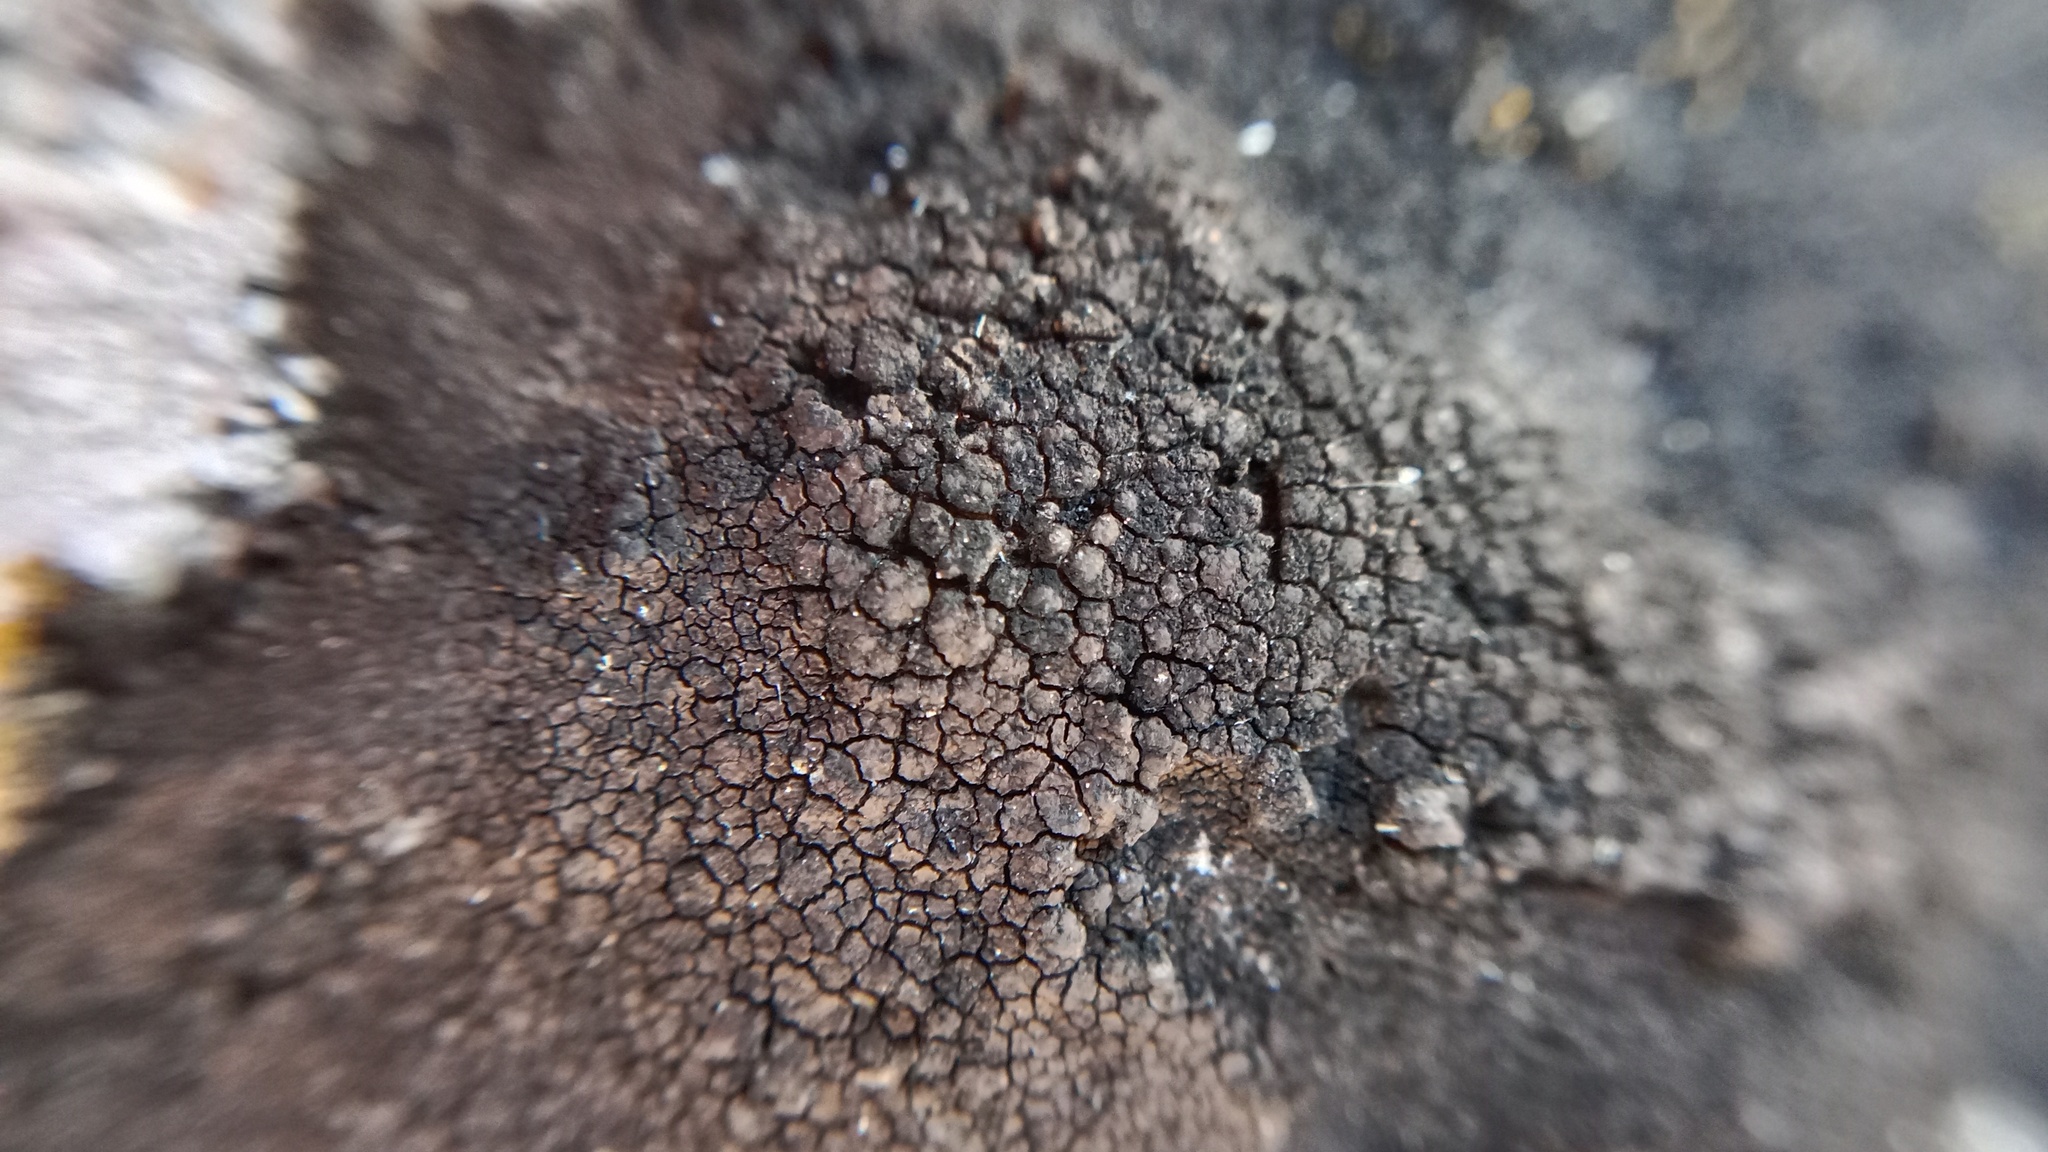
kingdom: Fungi
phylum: Ascomycota
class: Eurotiomycetes
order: Verrucariales
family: Verrucariaceae
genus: Verrucaria
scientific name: Verrucaria nigrescens
